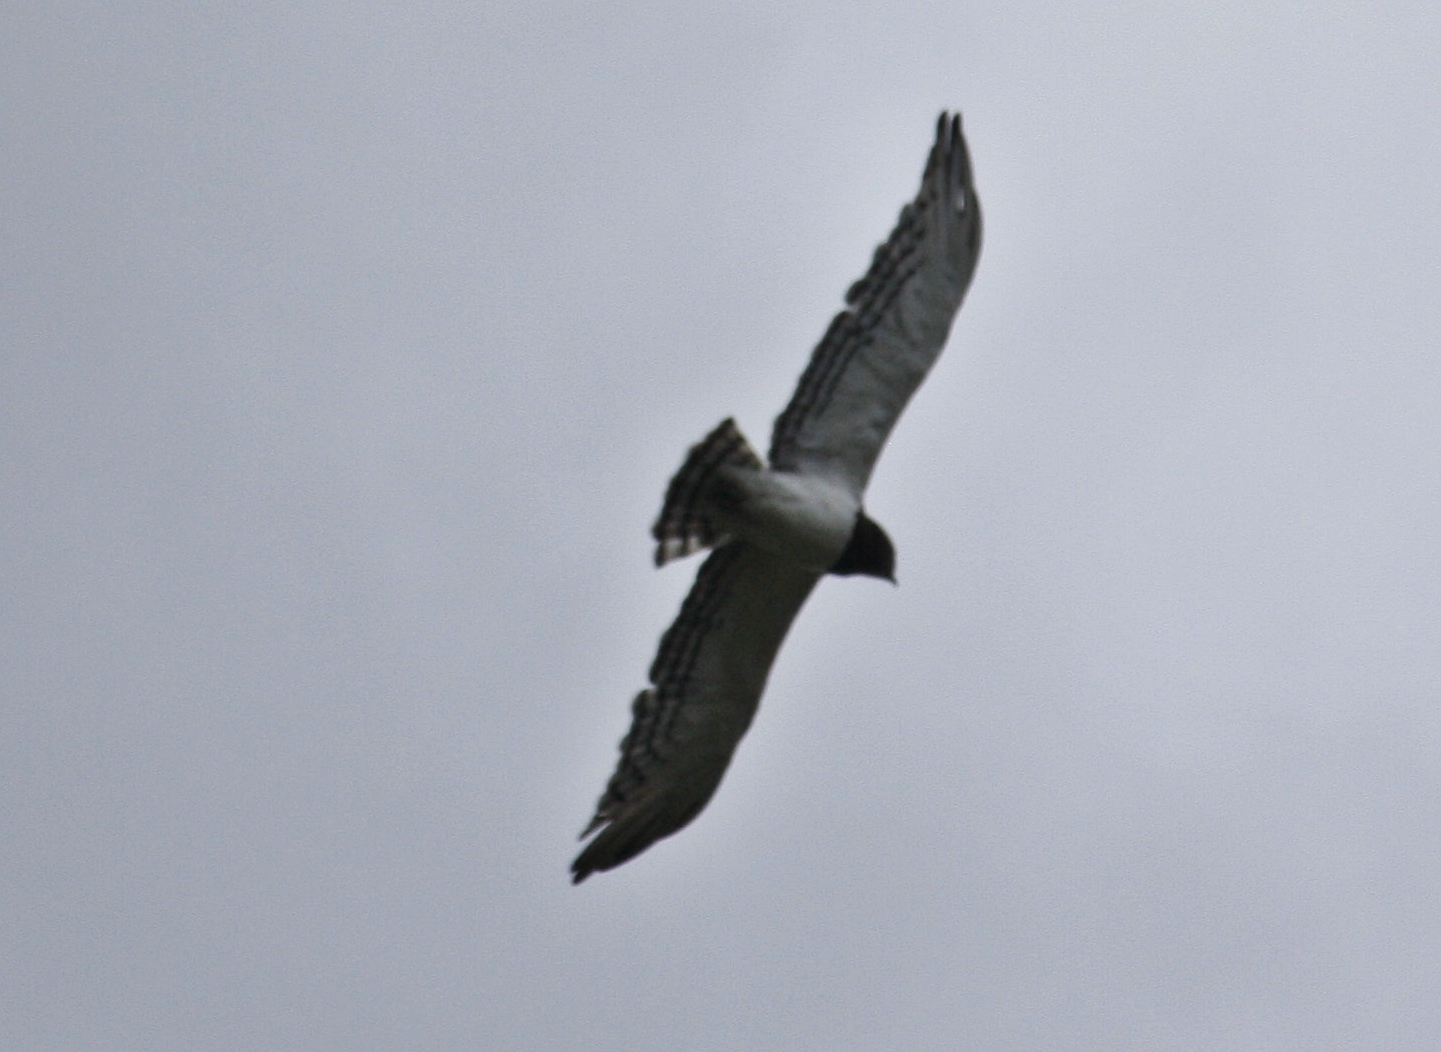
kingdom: Animalia
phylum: Chordata
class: Aves
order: Accipitriformes
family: Accipitridae
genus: Circaetus
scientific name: Circaetus pectoralis
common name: Black-chested snake eagle
